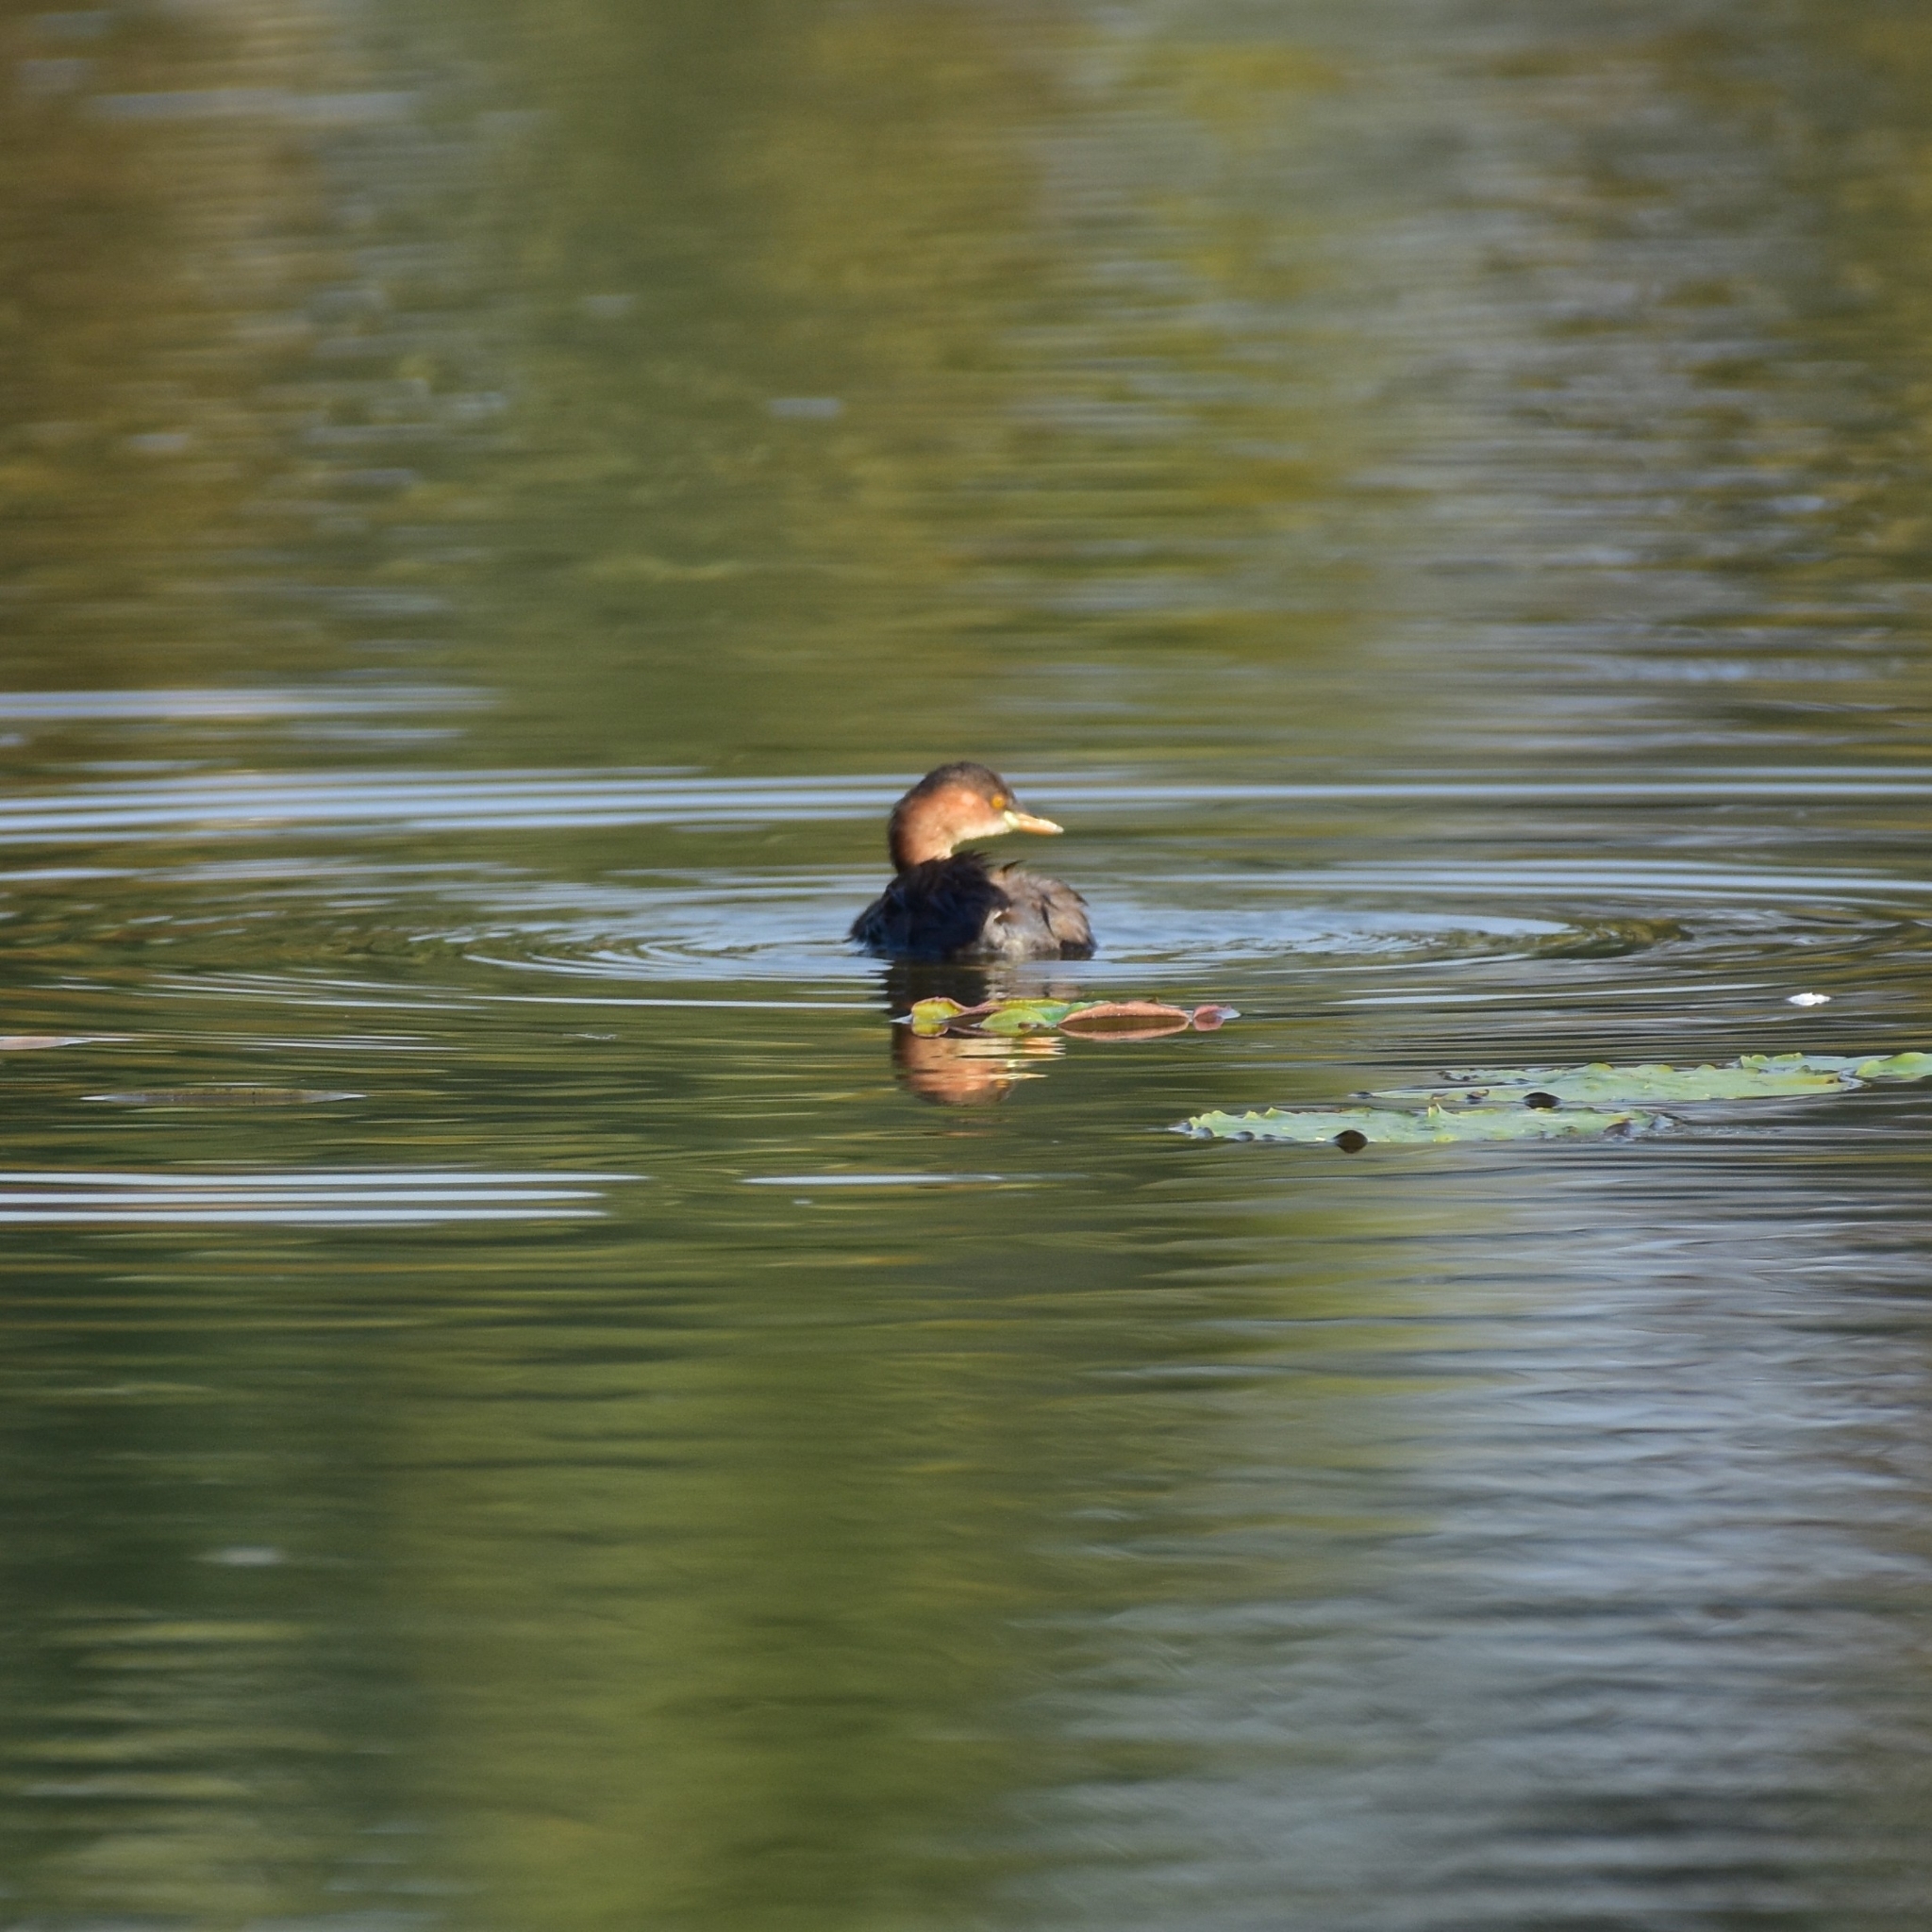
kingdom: Animalia
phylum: Chordata
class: Aves
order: Podicipediformes
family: Podicipedidae
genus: Tachybaptus
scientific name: Tachybaptus ruficollis
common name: Little grebe
